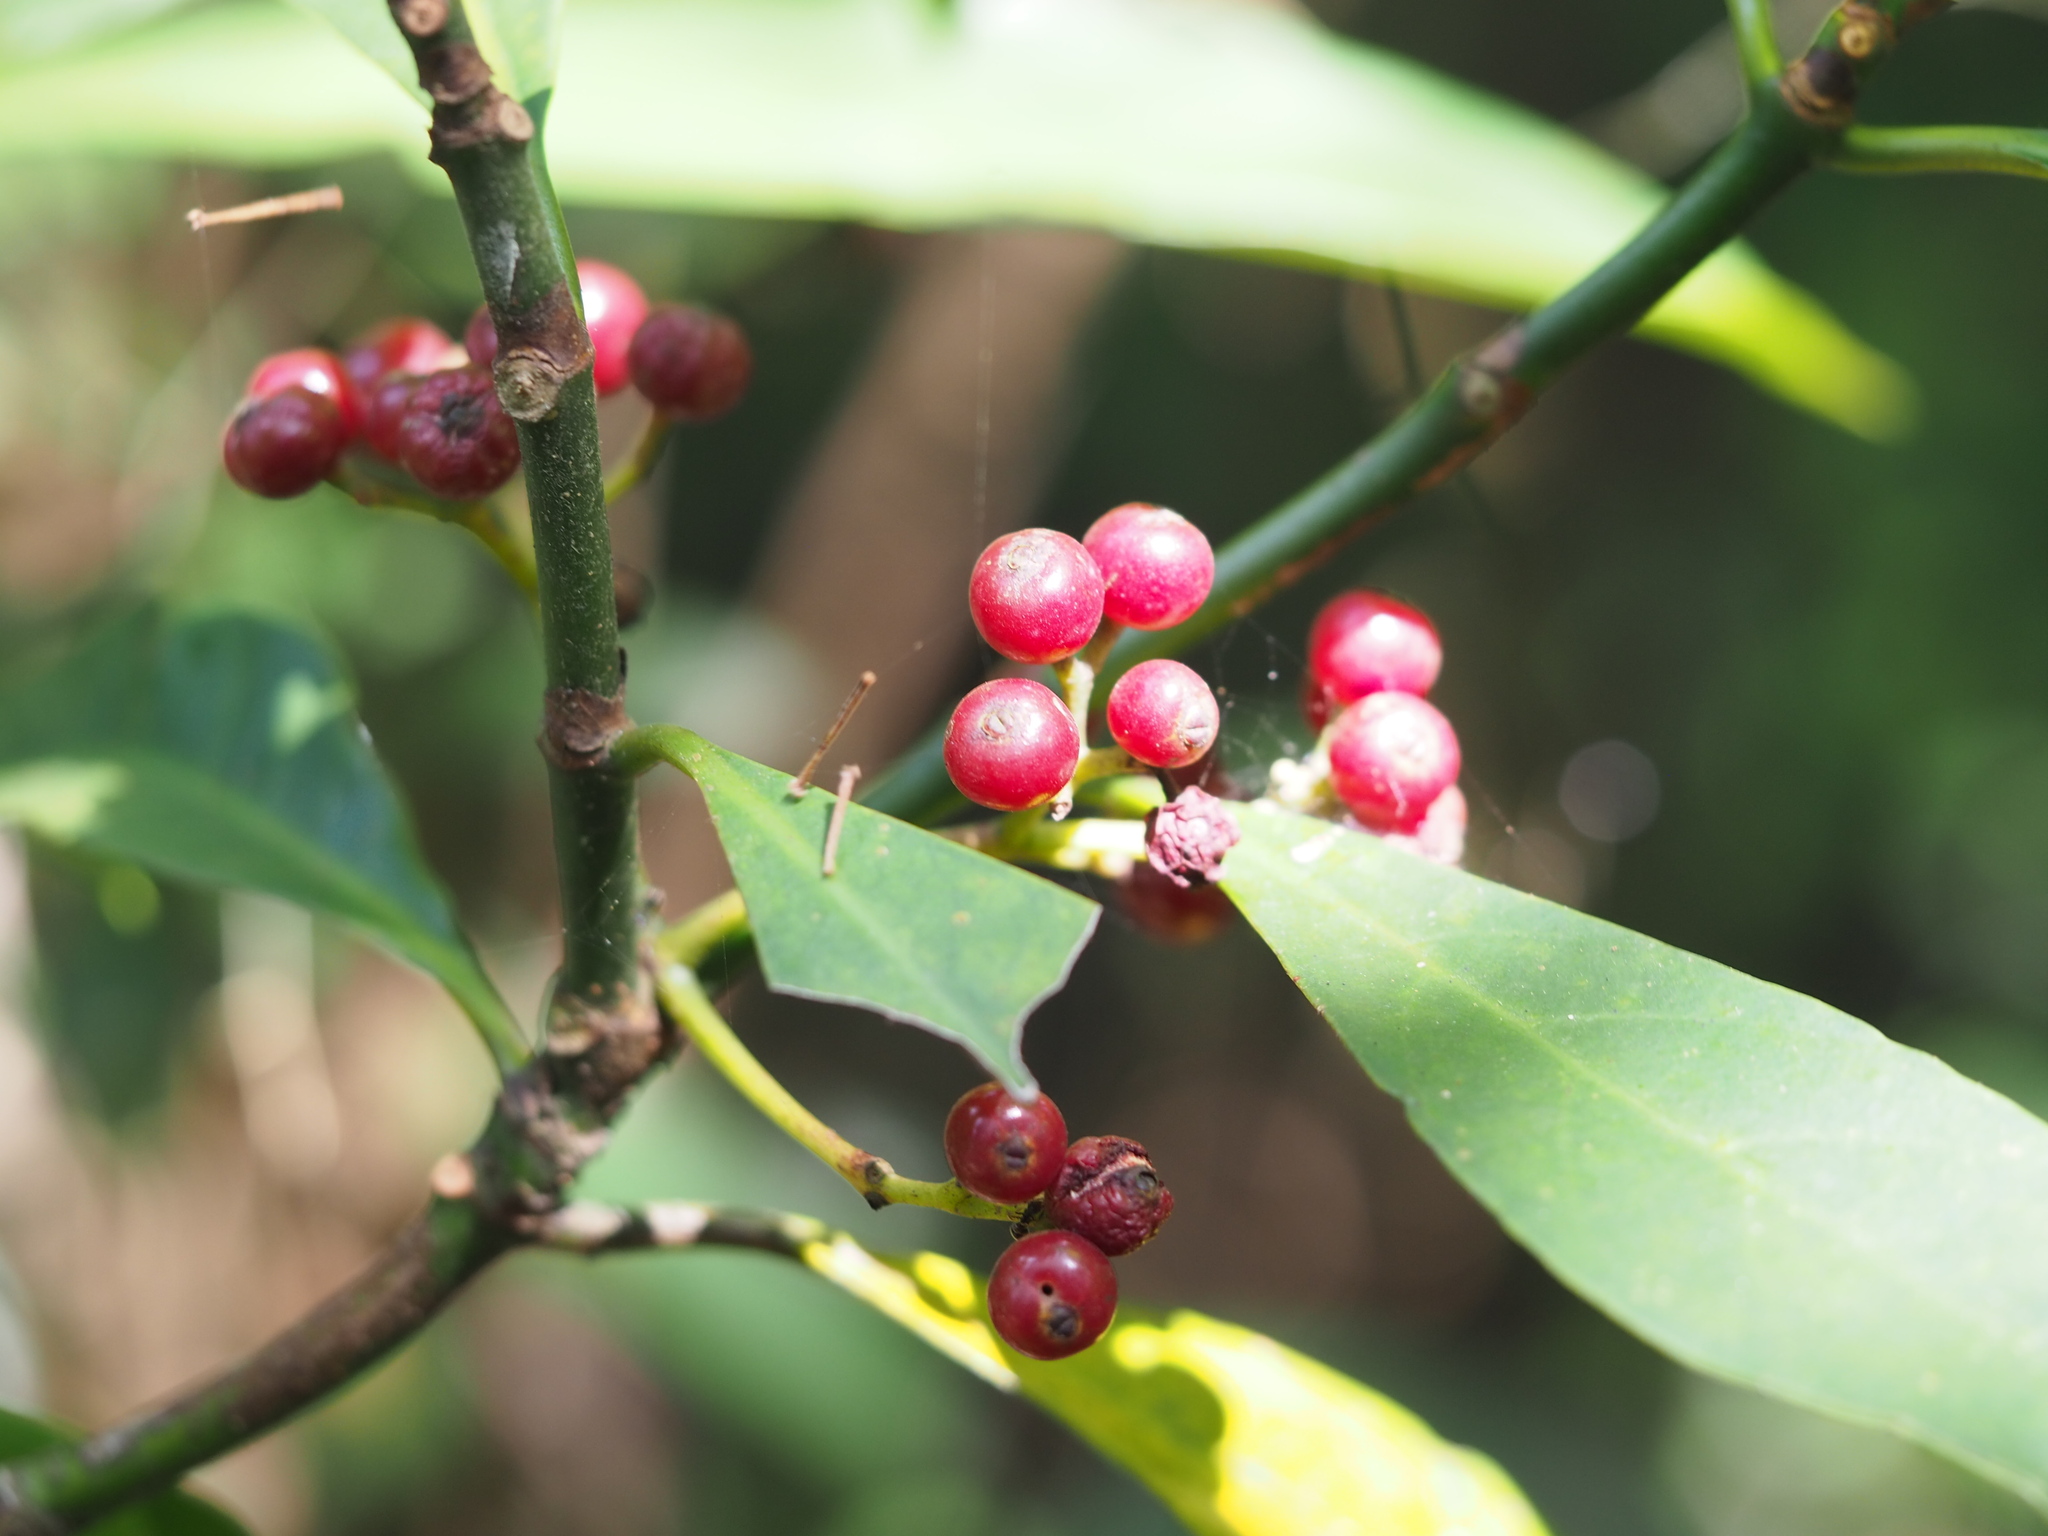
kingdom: Plantae
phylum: Tracheophyta
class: Magnoliopsida
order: Gentianales
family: Rubiaceae
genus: Psychotria
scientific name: Psychotria asiatica
